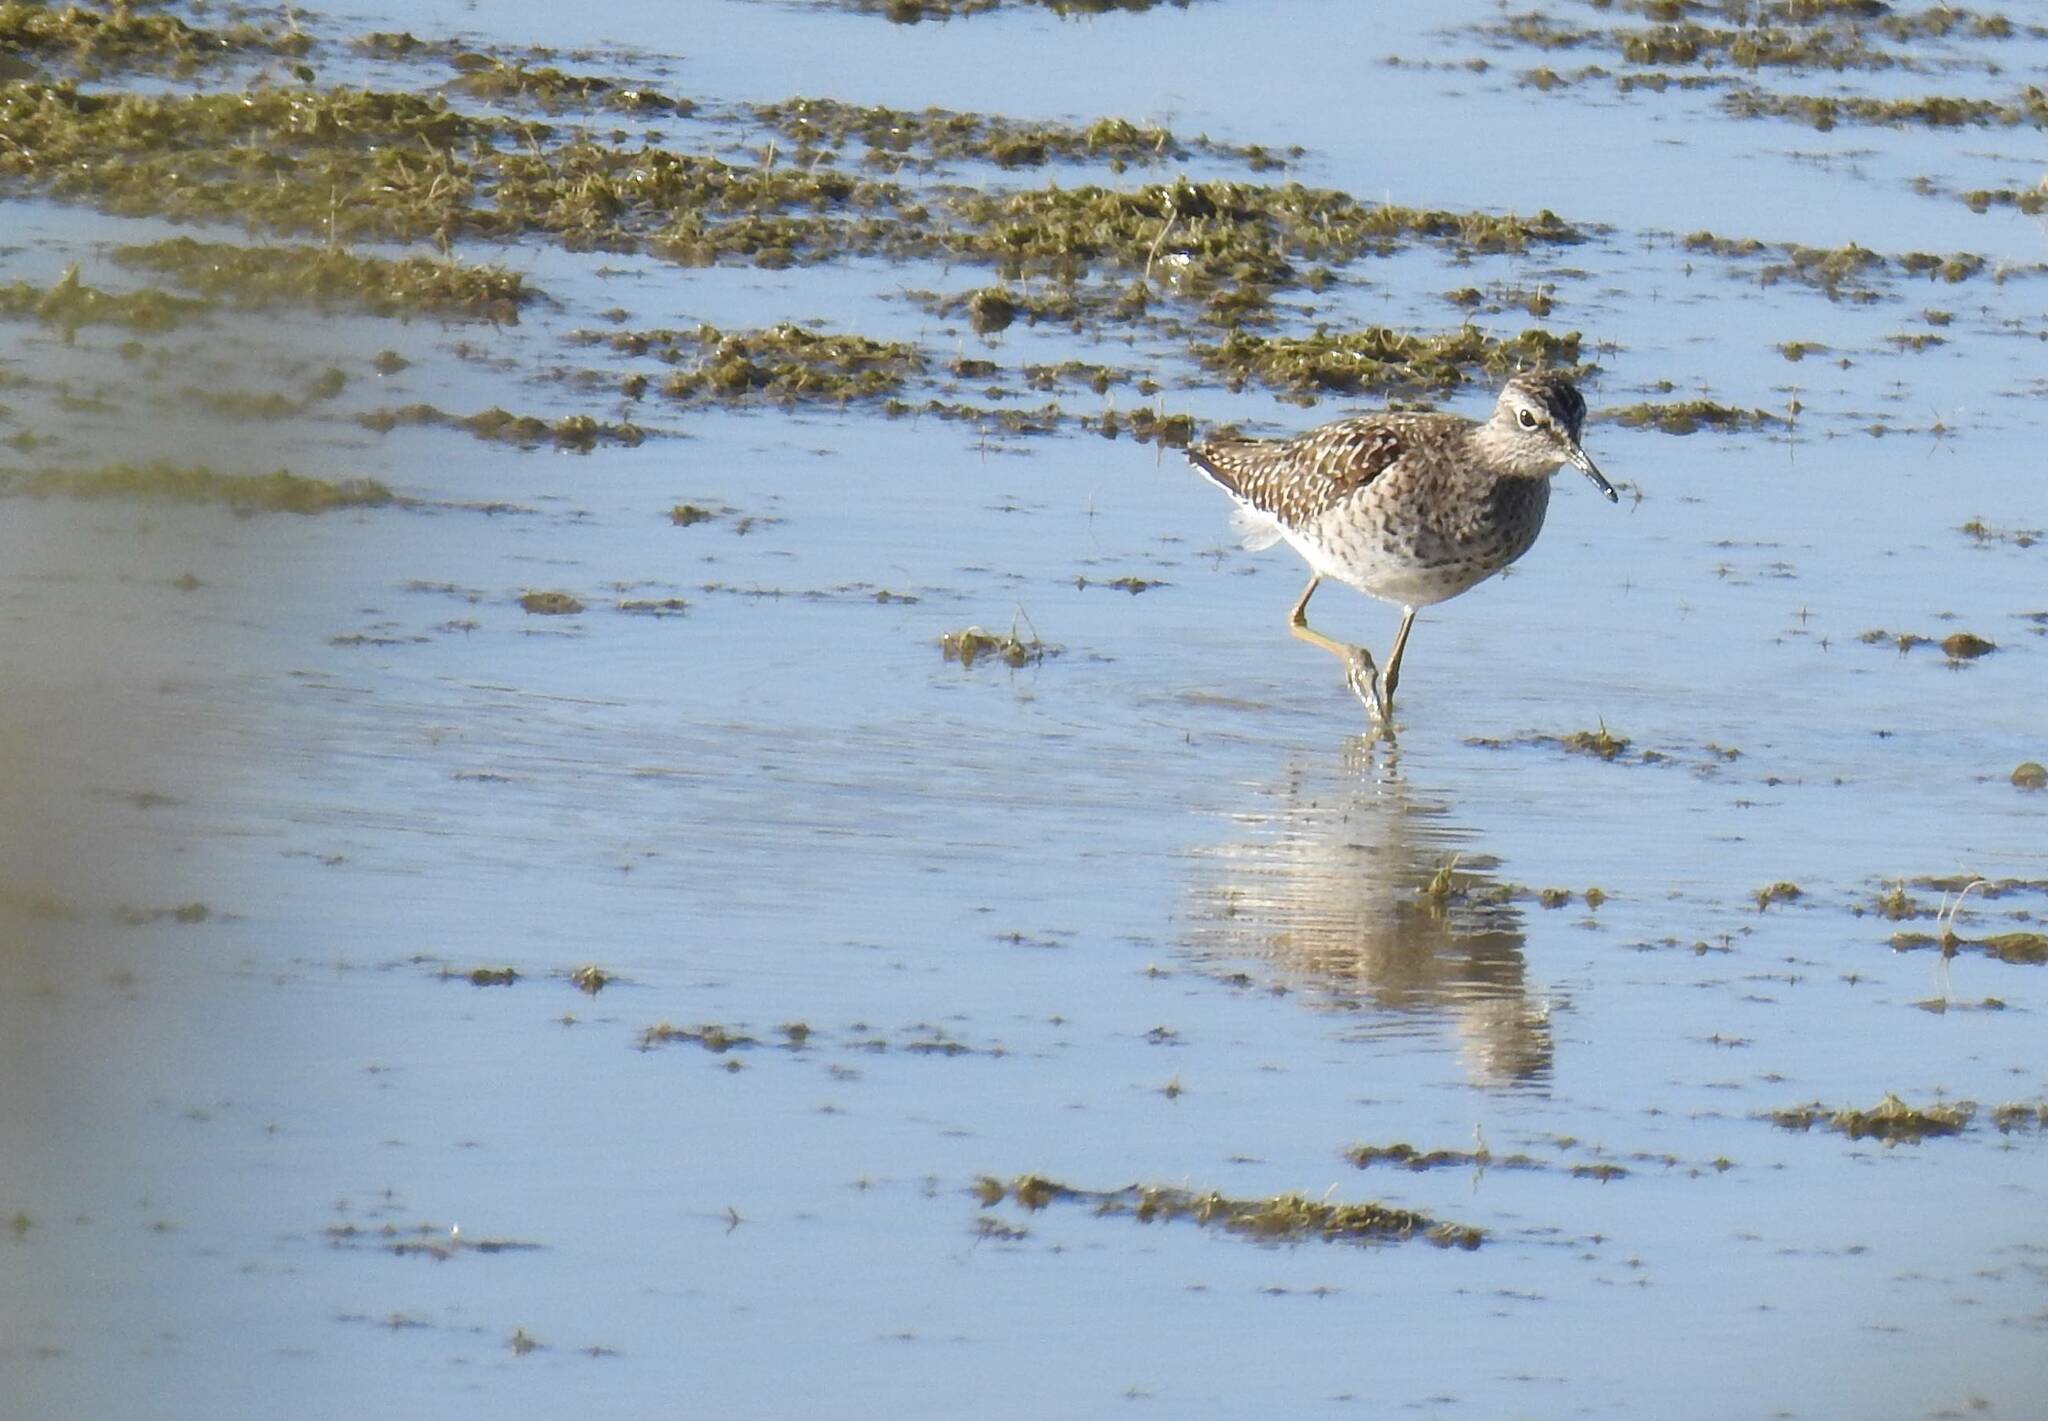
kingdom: Animalia
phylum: Chordata
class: Aves
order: Charadriiformes
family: Scolopacidae
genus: Tringa
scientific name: Tringa glareola
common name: Wood sandpiper
